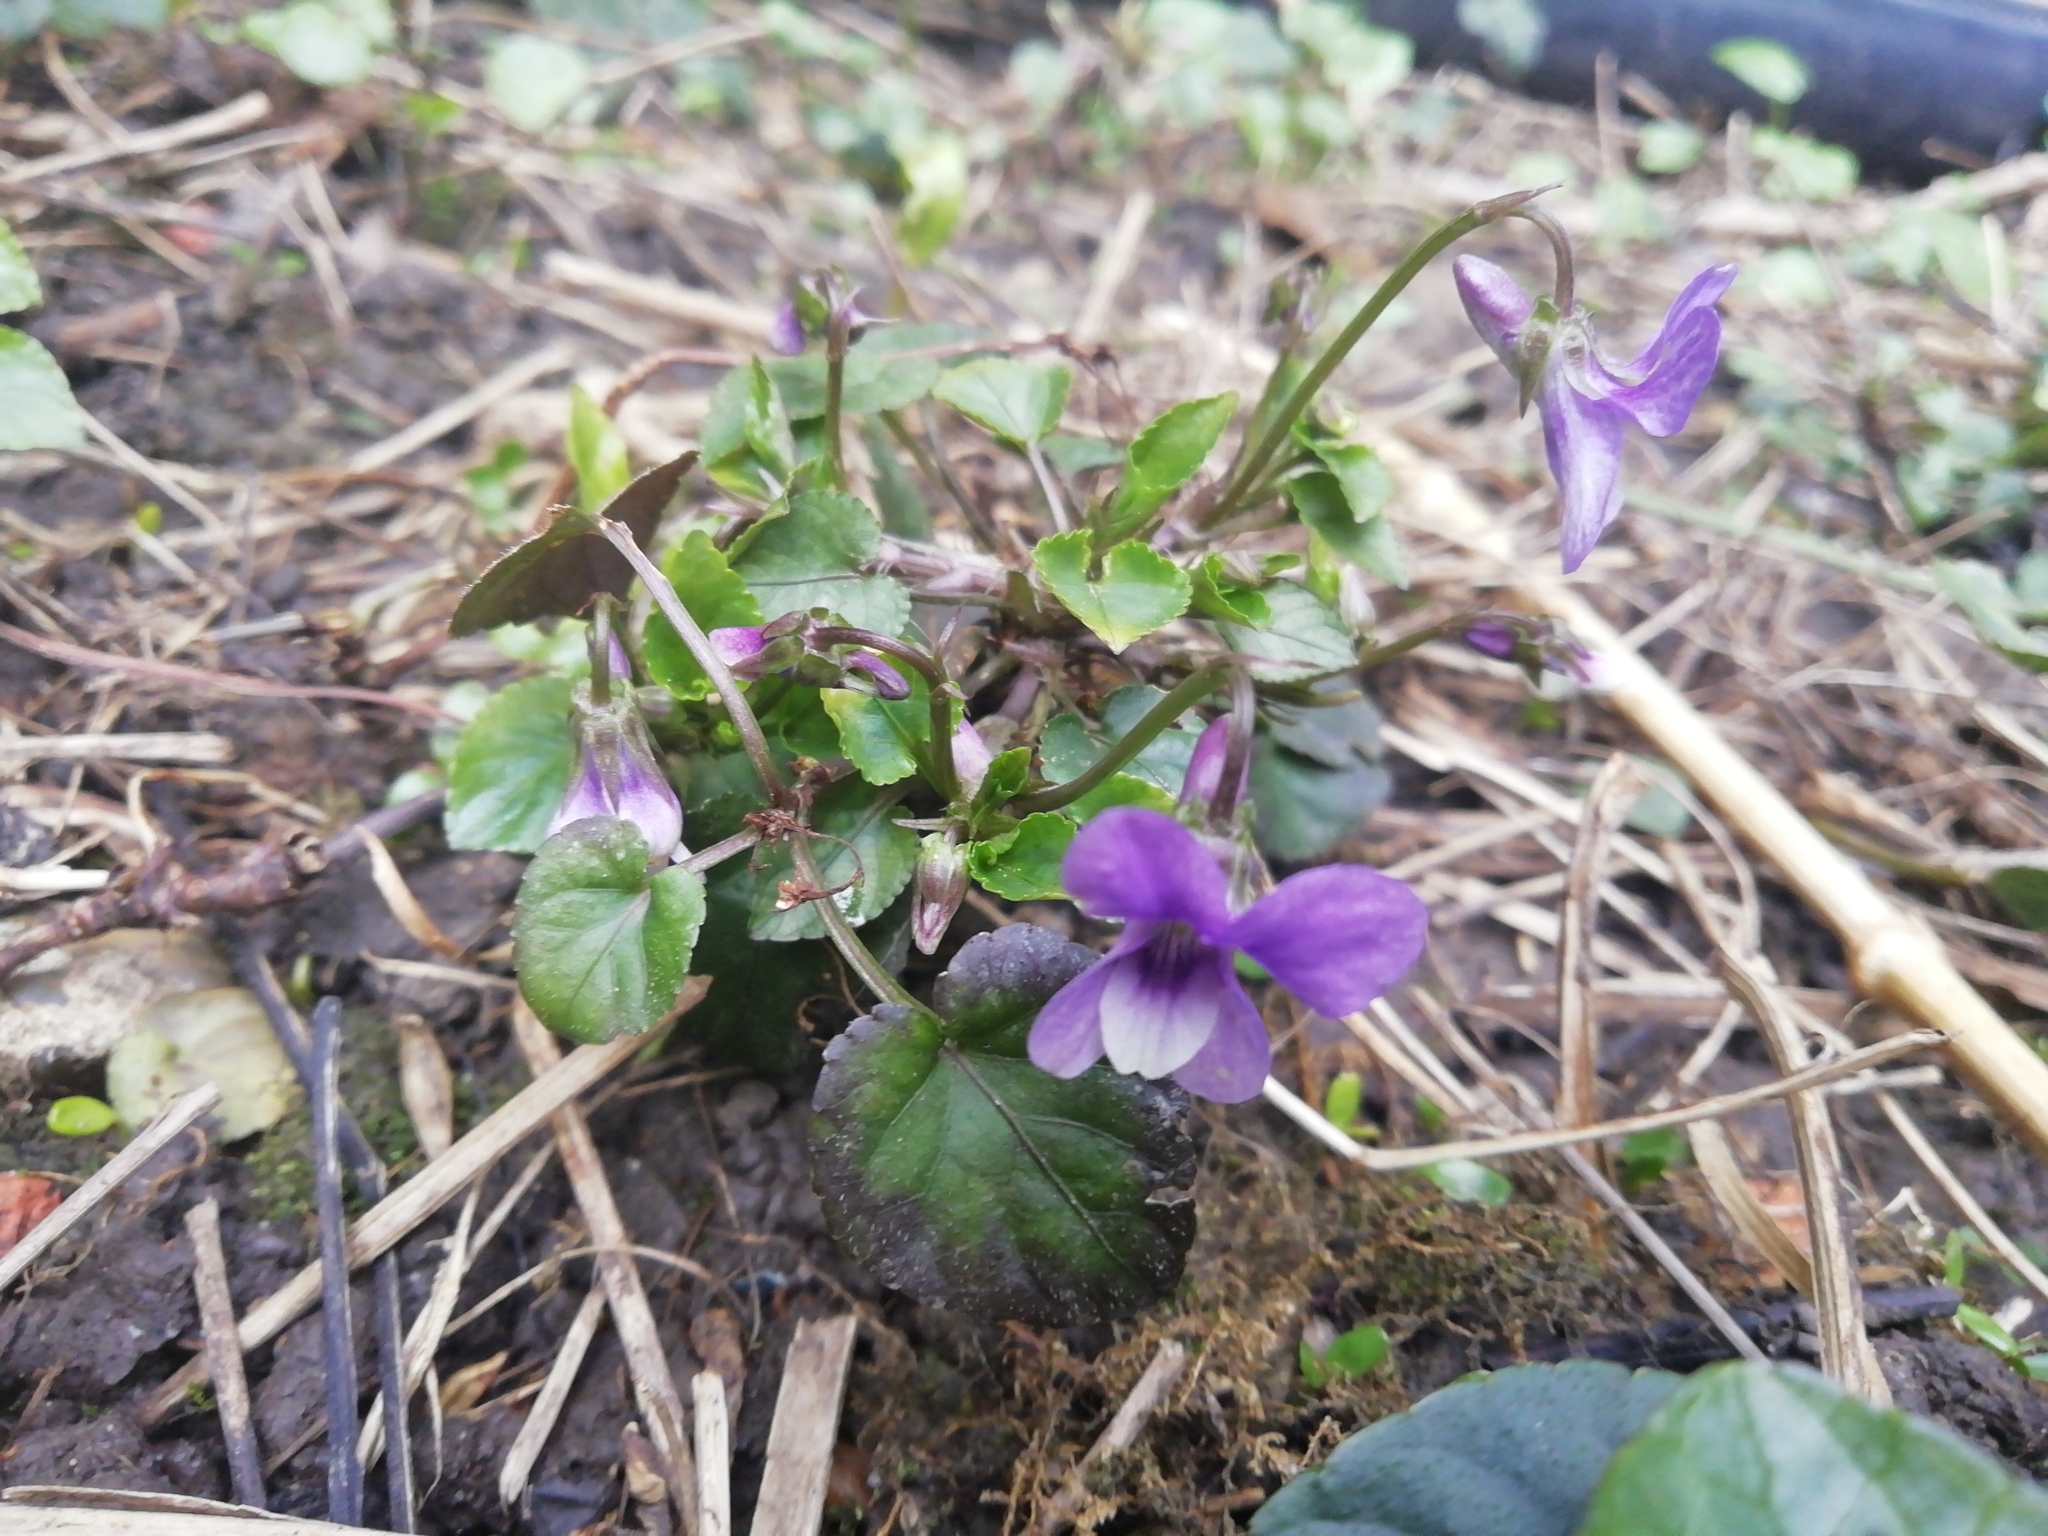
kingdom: Plantae
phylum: Tracheophyta
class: Magnoliopsida
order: Malpighiales
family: Violaceae
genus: Viola
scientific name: Viola reichenbachiana
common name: Early dog-violet
